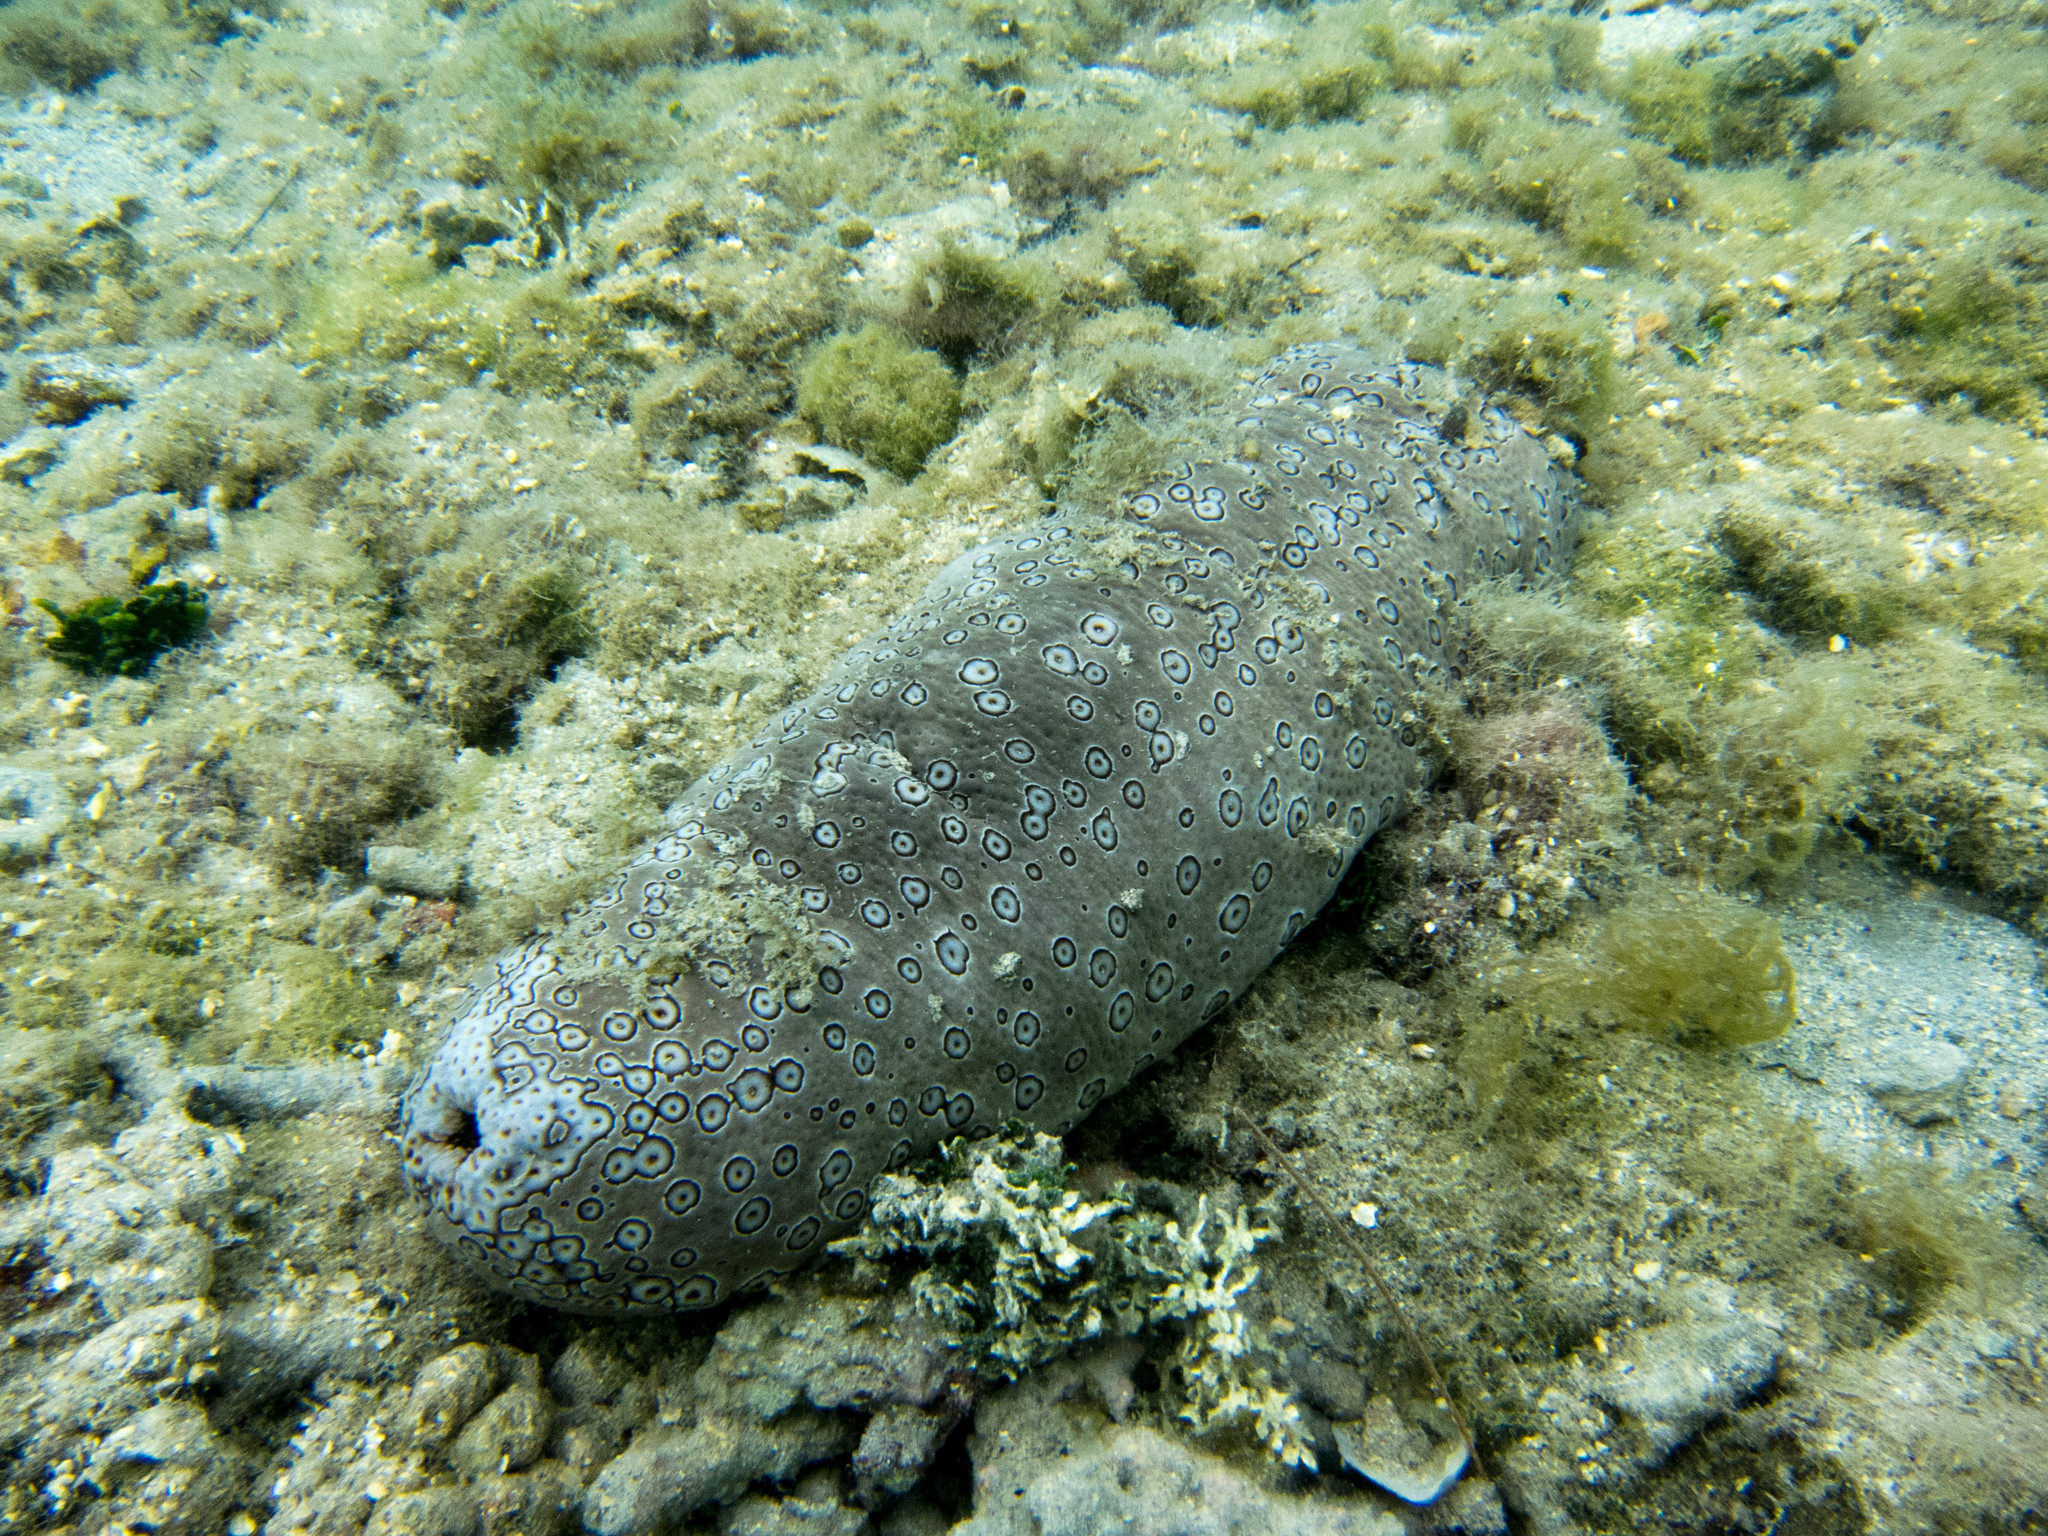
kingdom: Animalia
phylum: Echinodermata
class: Holothuroidea
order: Holothuriida
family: Holothuriidae
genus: Bohadschia
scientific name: Bohadschia argus
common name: Leopardfish
